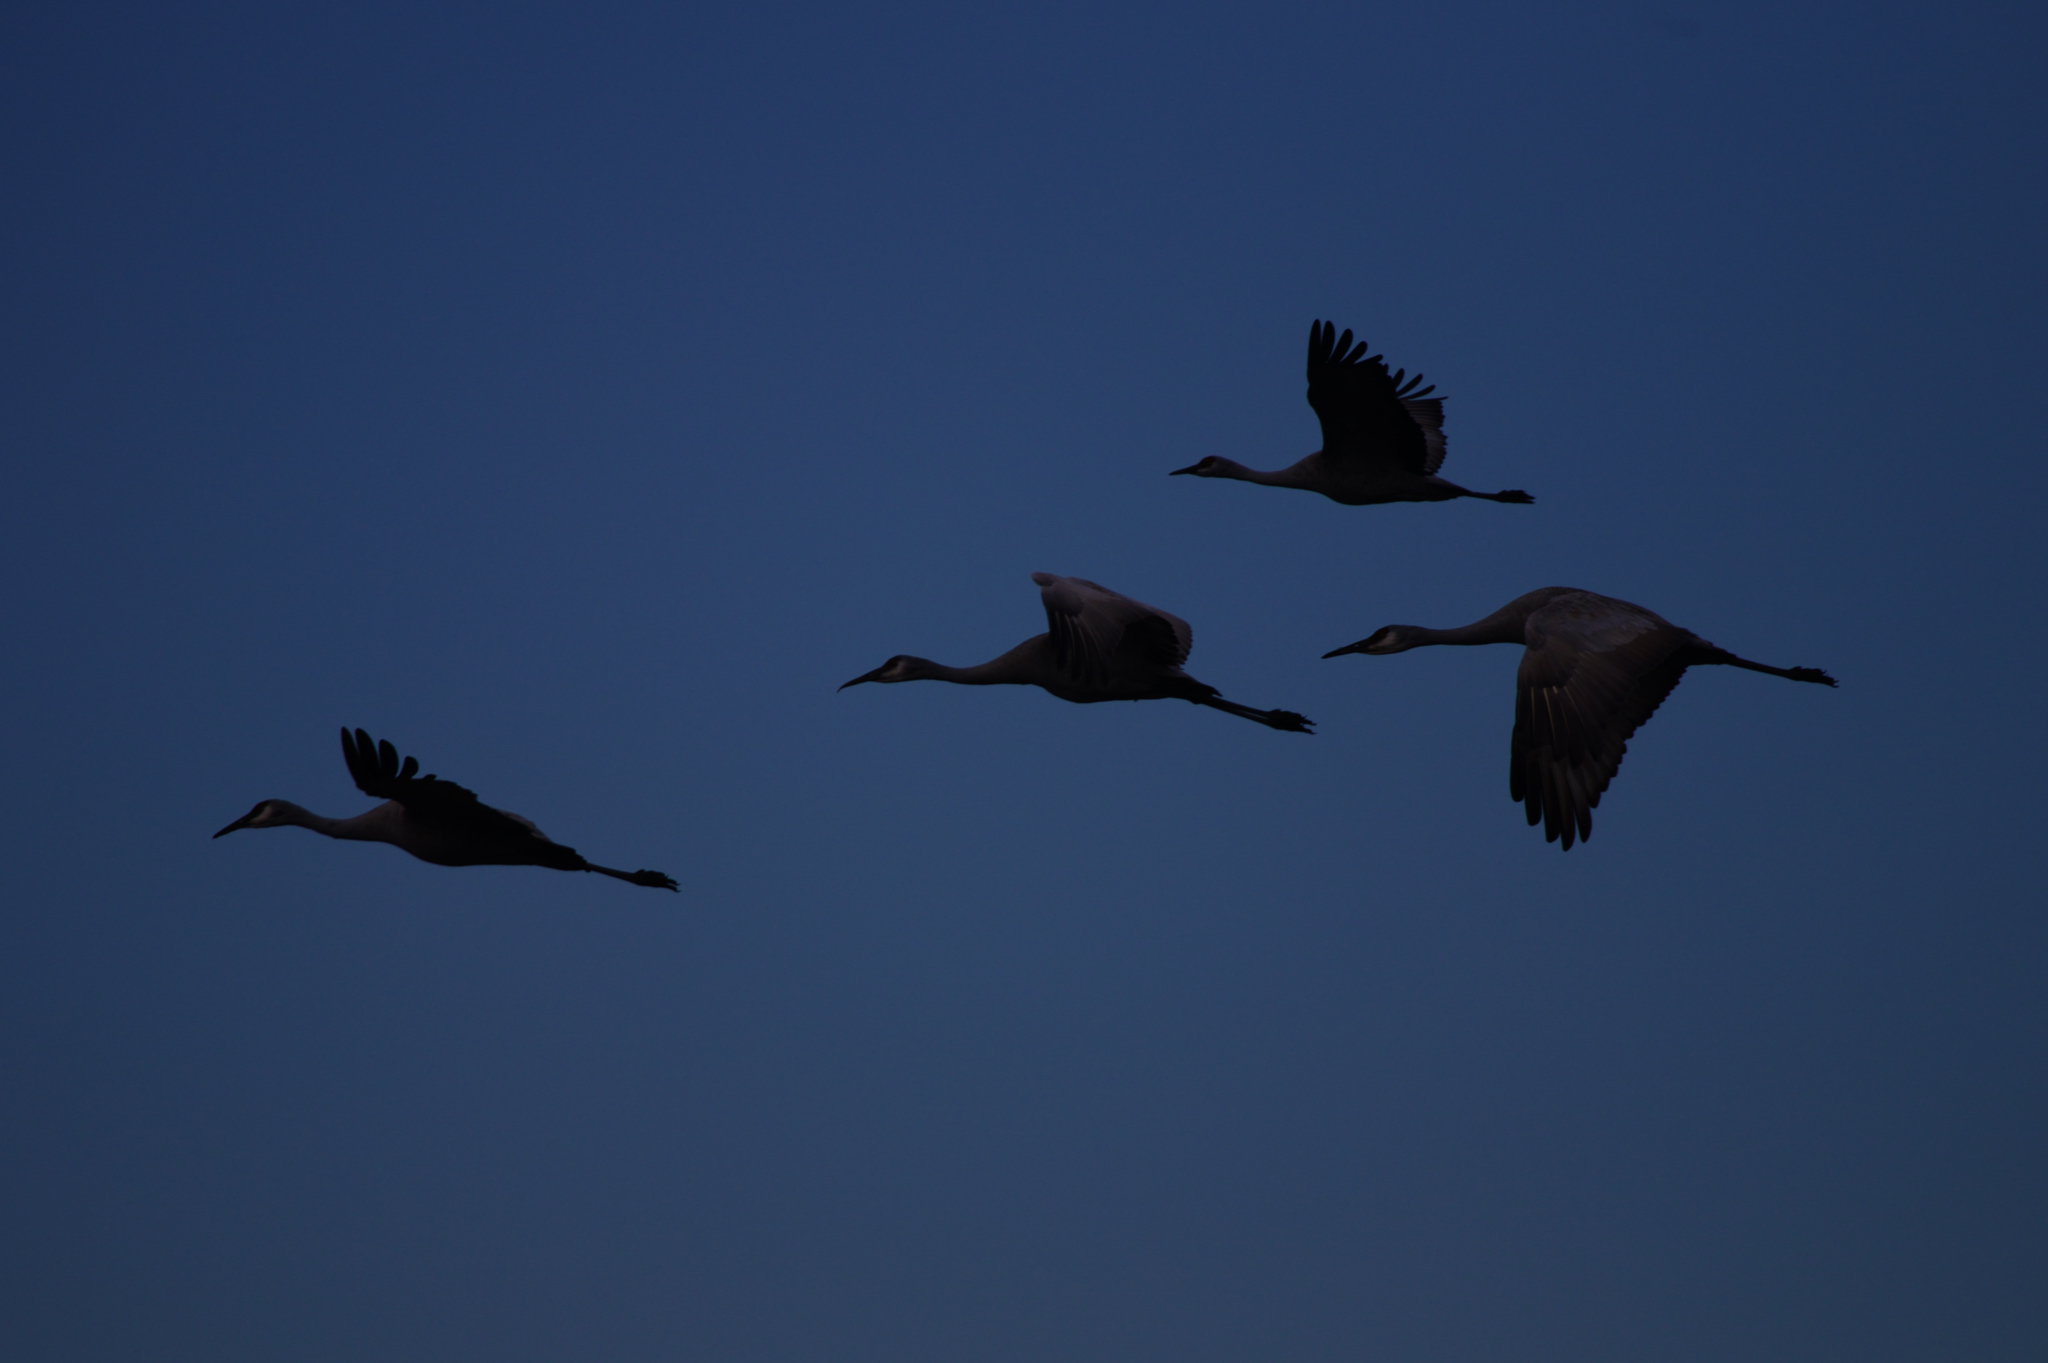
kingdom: Animalia
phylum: Chordata
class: Aves
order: Gruiformes
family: Gruidae
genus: Grus
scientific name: Grus canadensis
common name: Sandhill crane
